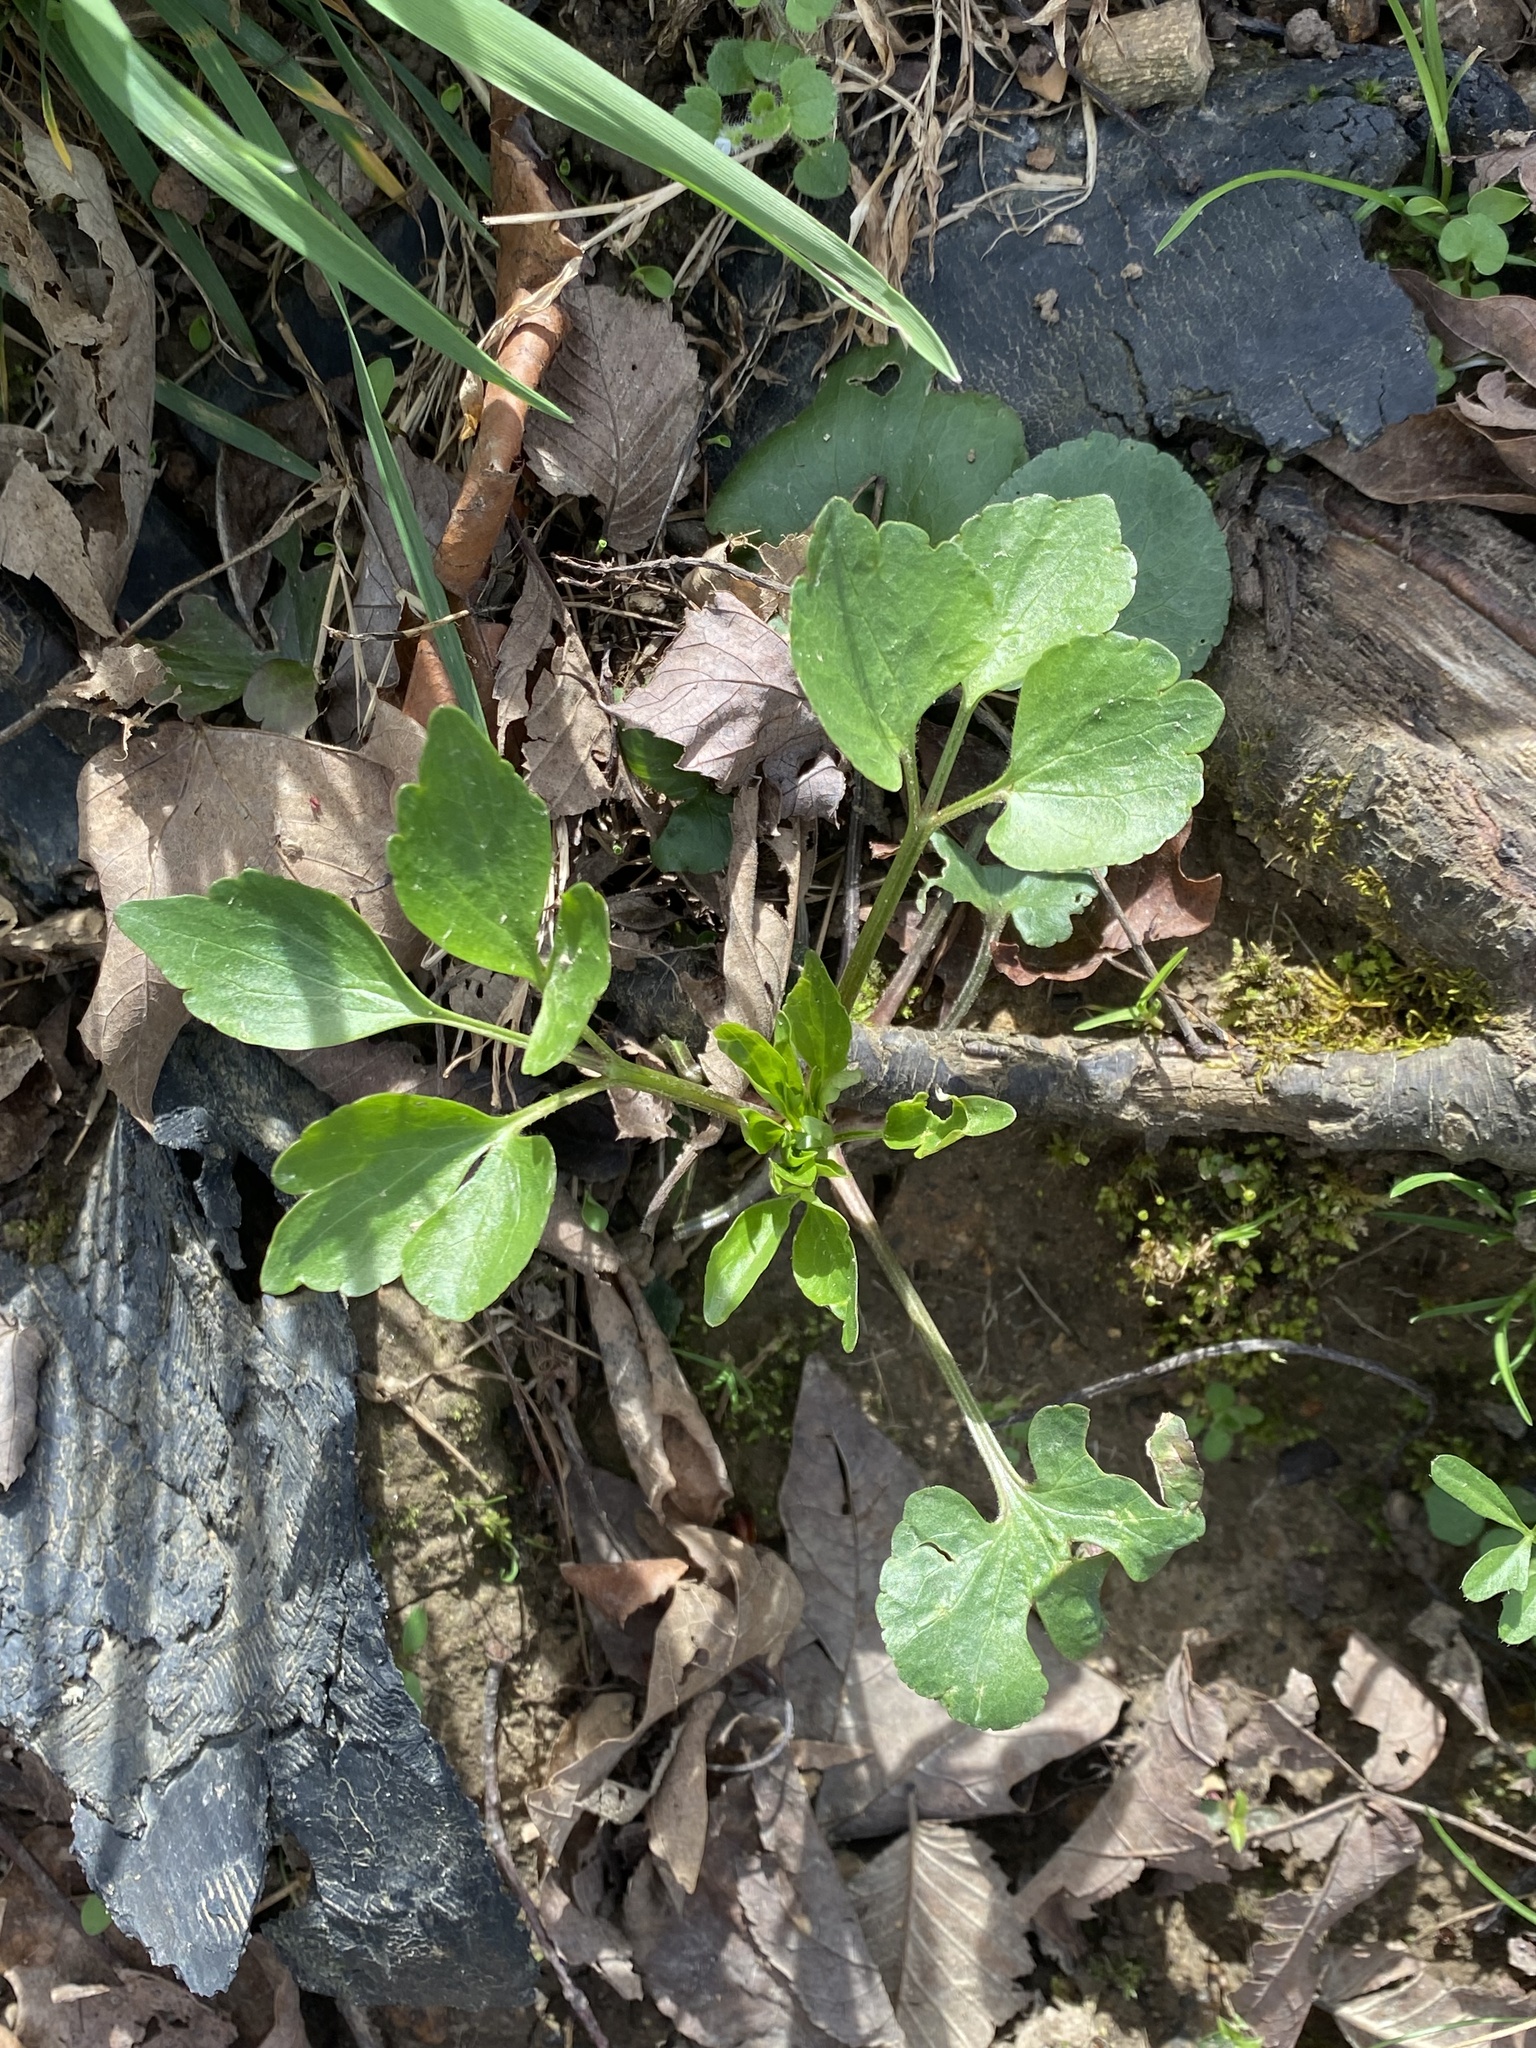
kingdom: Plantae
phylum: Tracheophyta
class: Magnoliopsida
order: Ranunculales
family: Ranunculaceae
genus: Ranunculus
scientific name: Ranunculus abortivus
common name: Early wood buttercup
